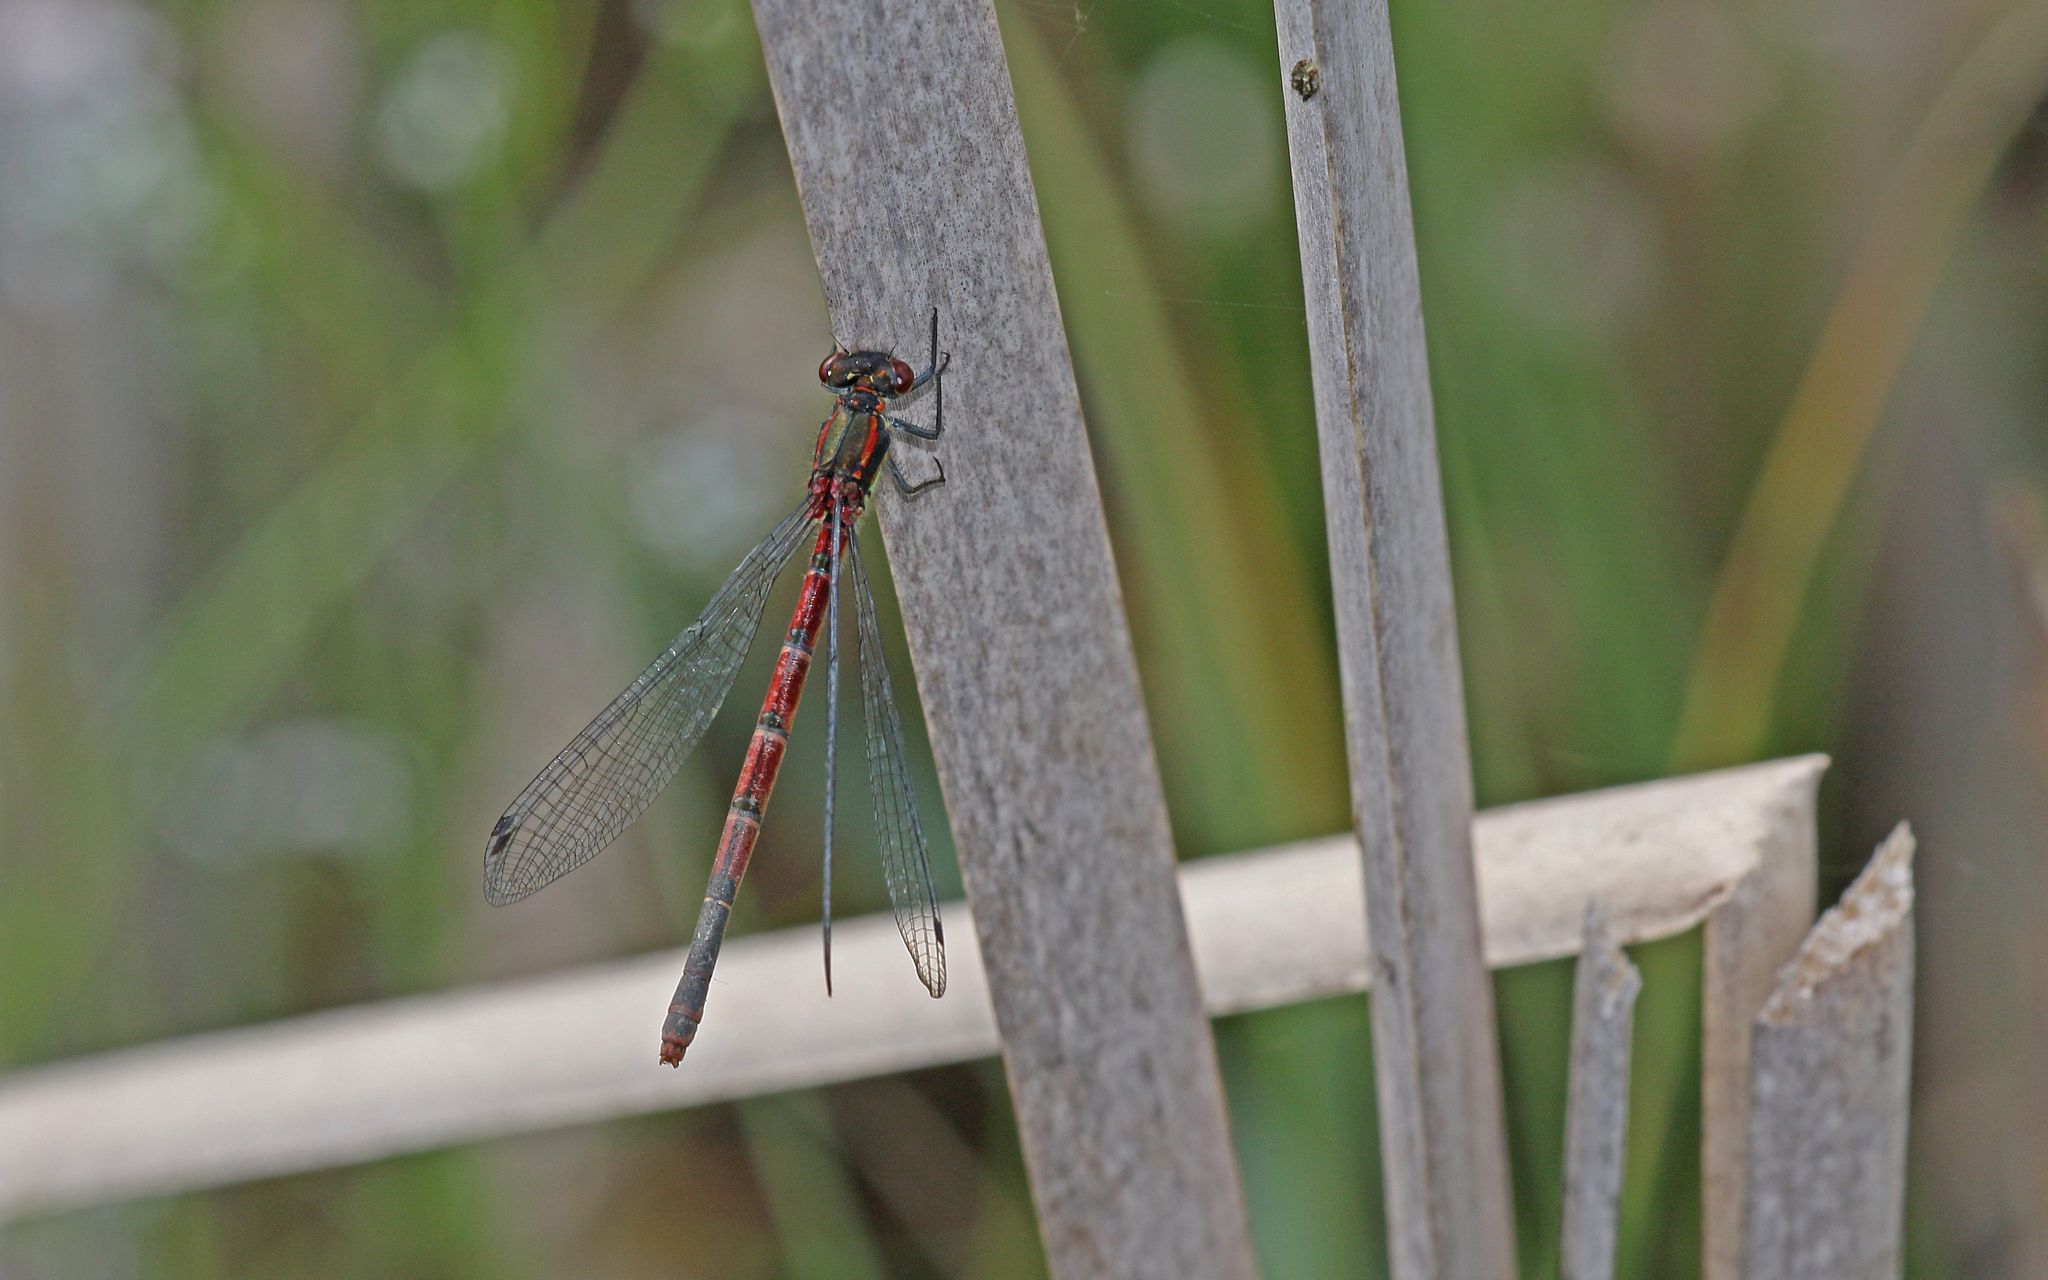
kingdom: Animalia
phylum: Arthropoda
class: Insecta
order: Odonata
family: Coenagrionidae
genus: Pyrrhosoma
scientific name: Pyrrhosoma nymphula
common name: Large red damsel
